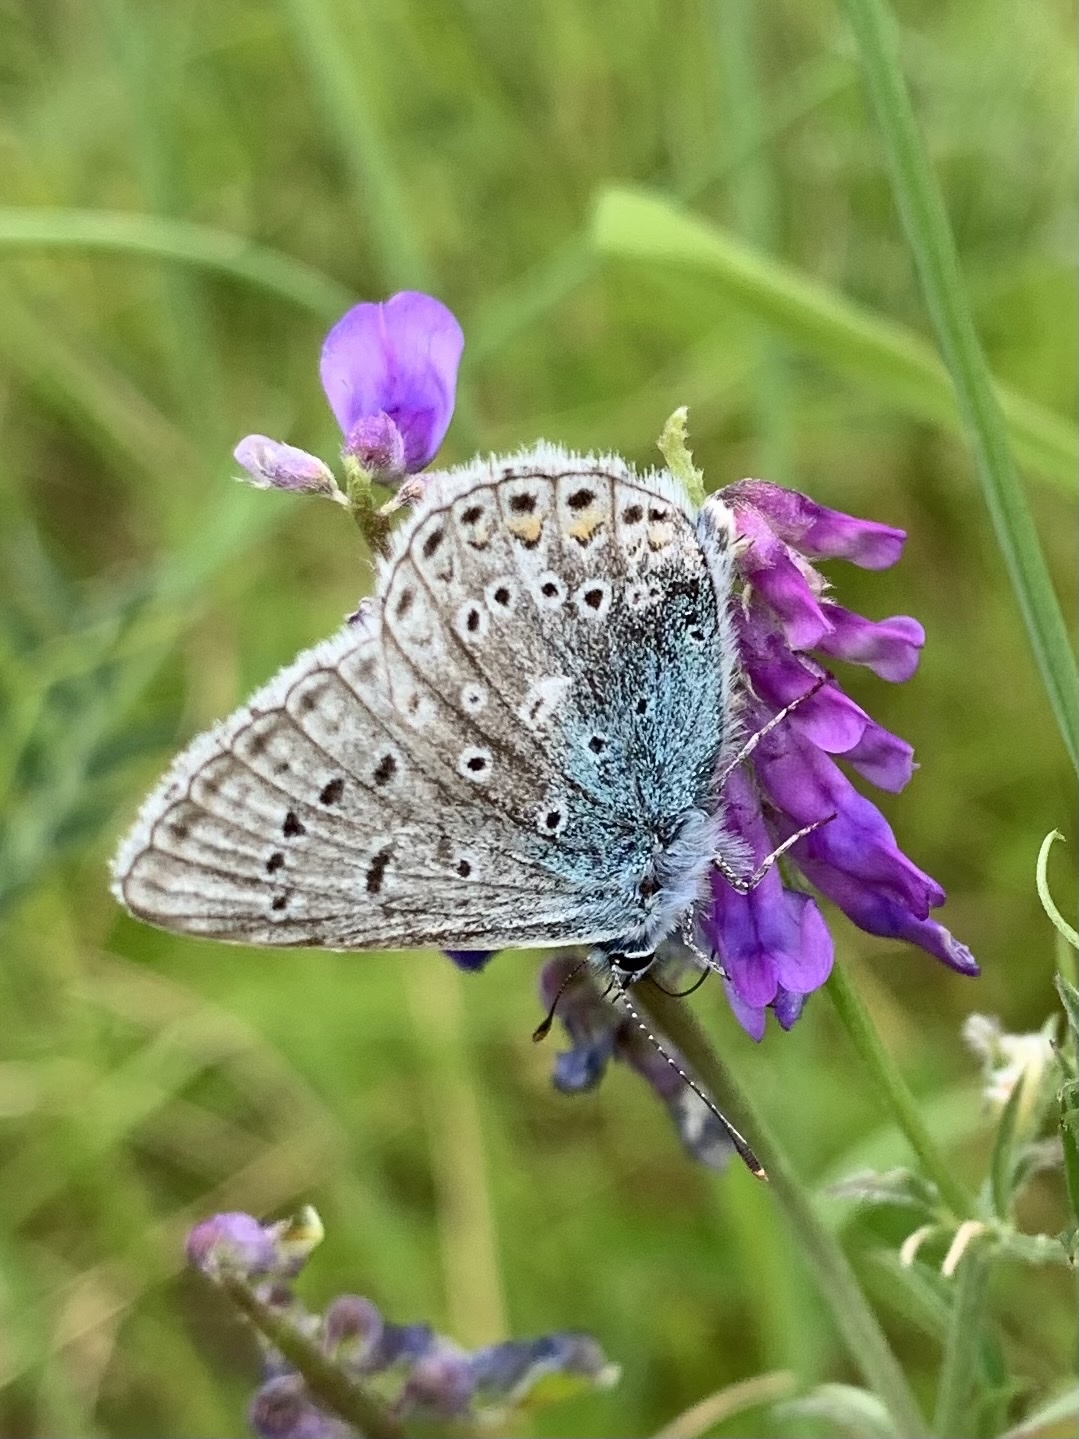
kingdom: Animalia
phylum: Arthropoda
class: Insecta
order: Lepidoptera
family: Lycaenidae
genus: Polyommatus
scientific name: Polyommatus icarus
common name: Common blue
